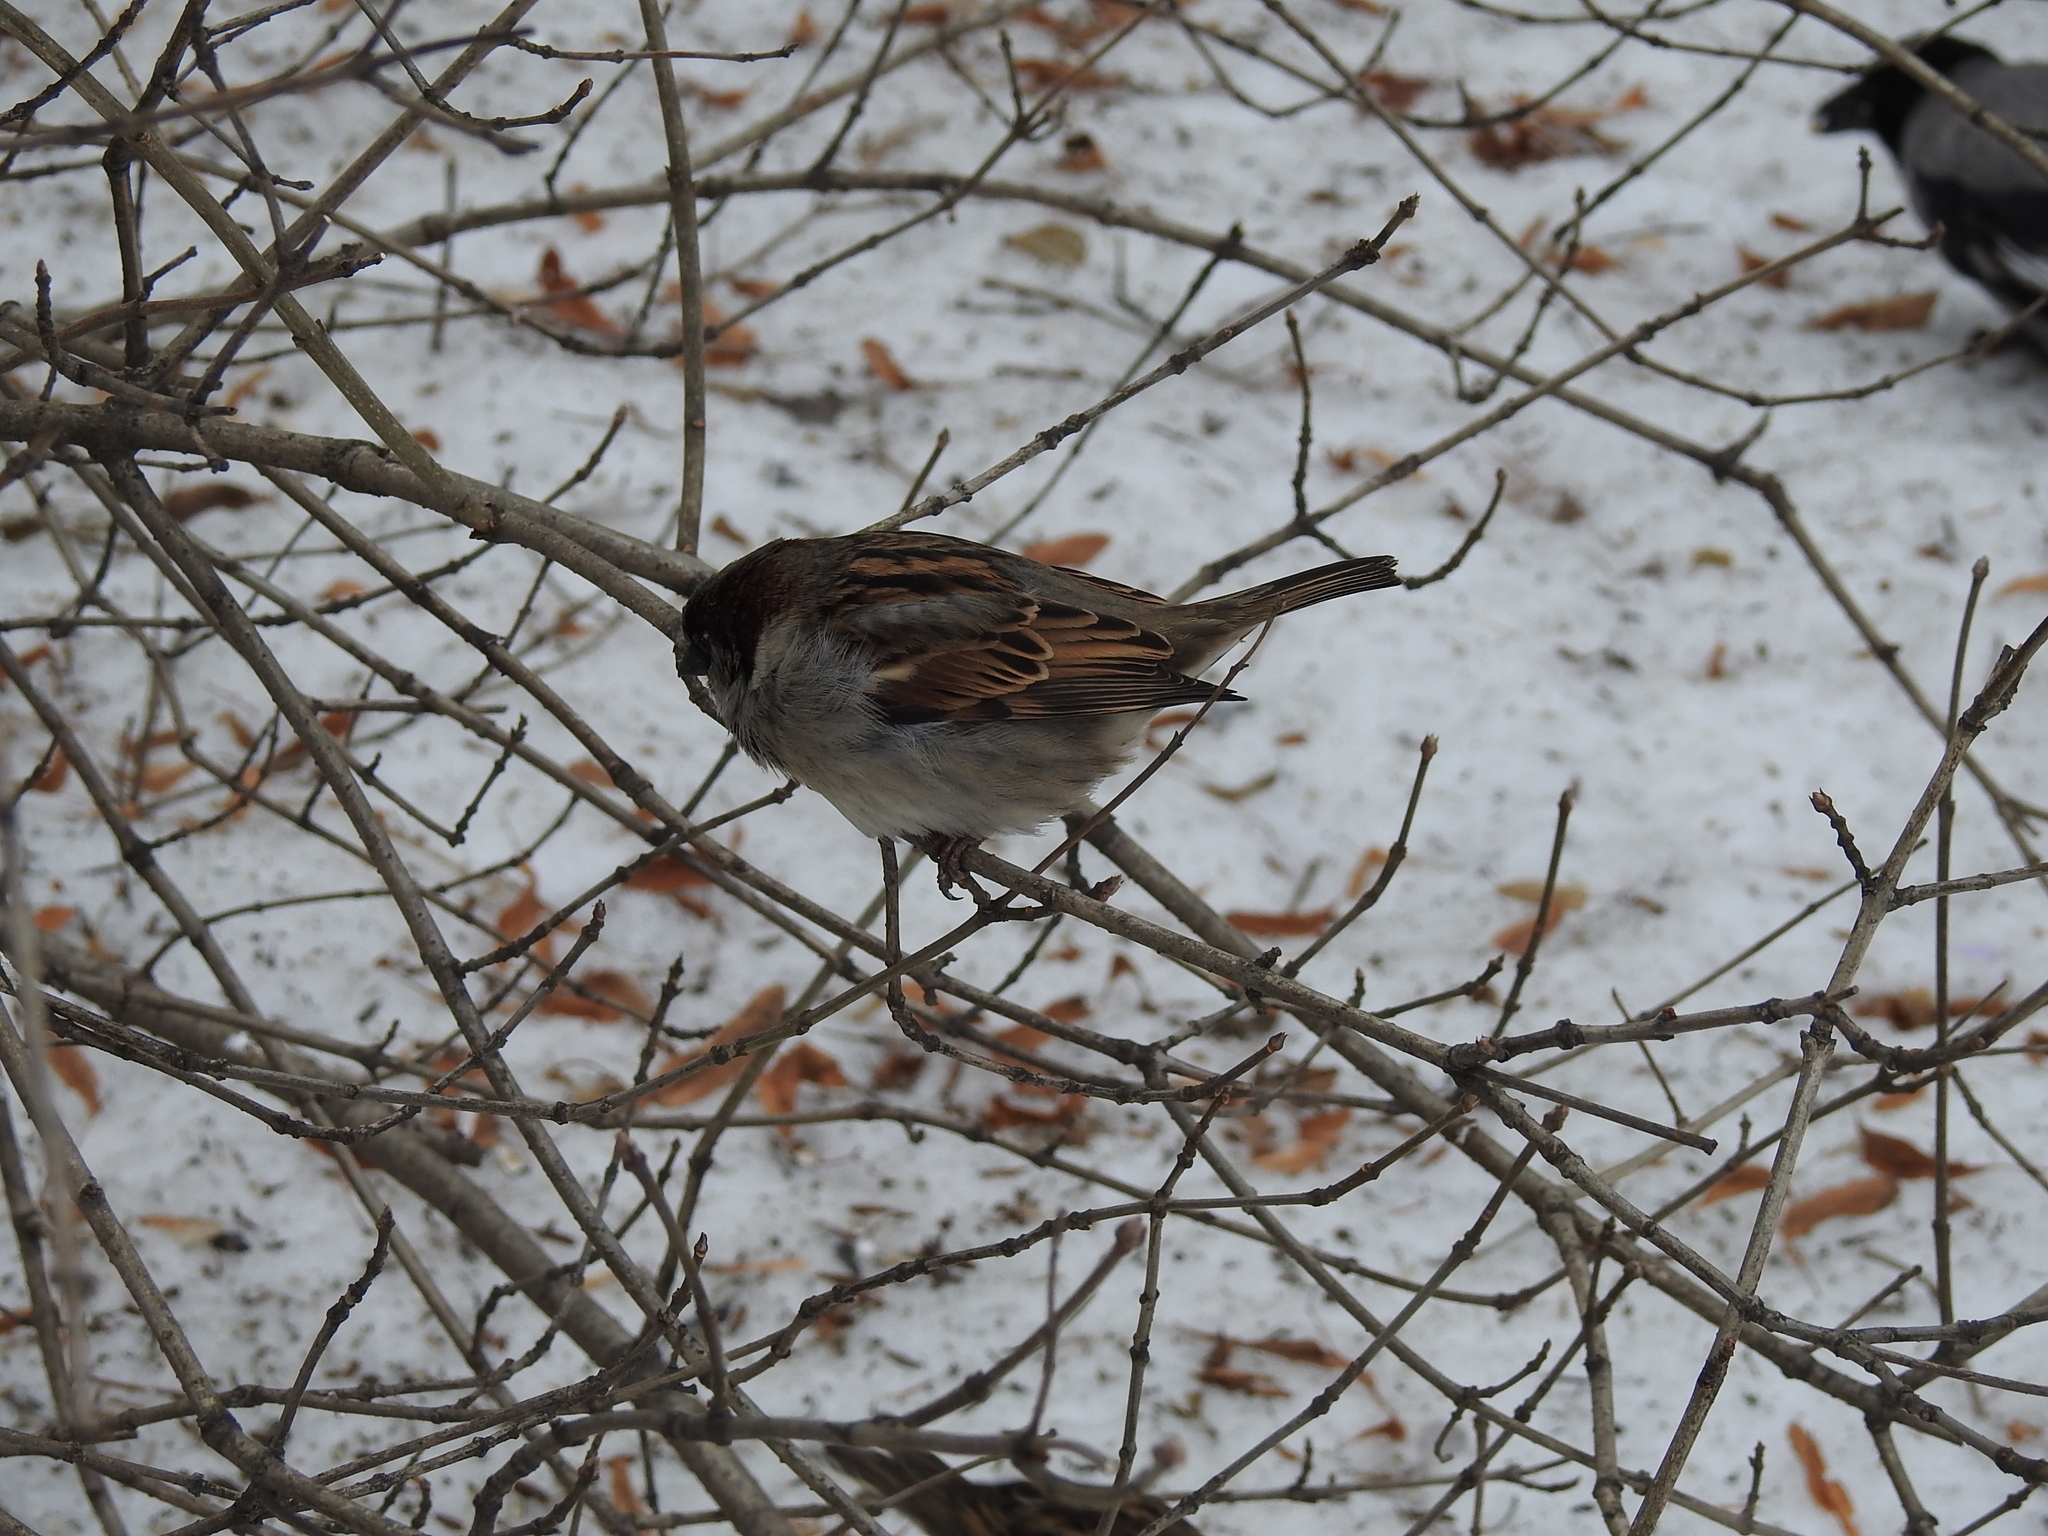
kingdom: Animalia
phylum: Chordata
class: Aves
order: Passeriformes
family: Passeridae
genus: Passer
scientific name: Passer domesticus
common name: House sparrow
